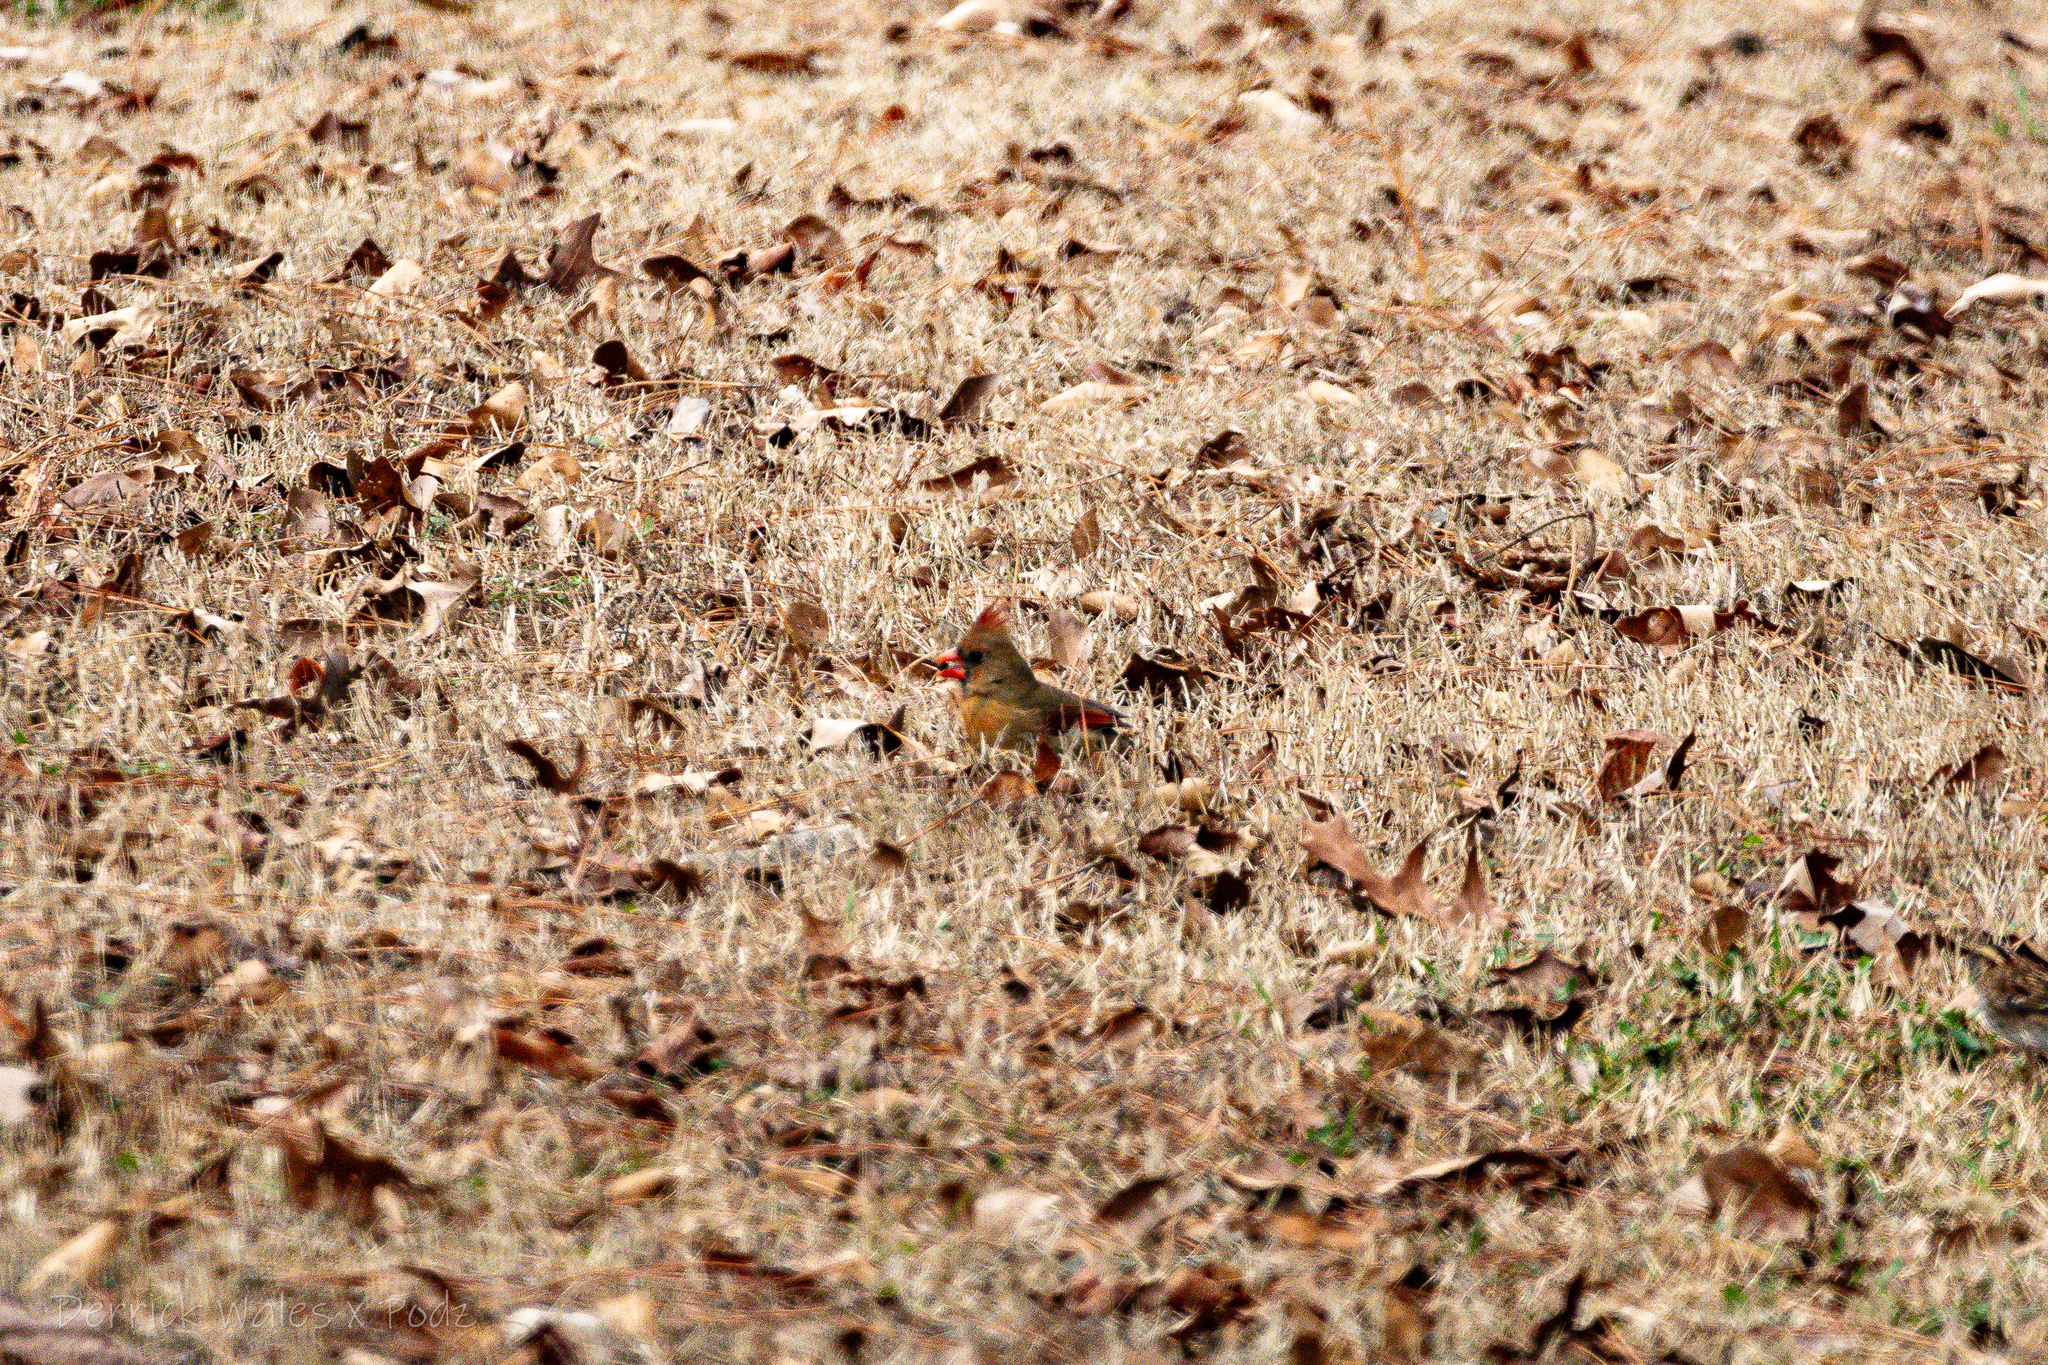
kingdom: Animalia
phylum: Chordata
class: Aves
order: Passeriformes
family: Cardinalidae
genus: Cardinalis
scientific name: Cardinalis cardinalis
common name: Northern cardinal
